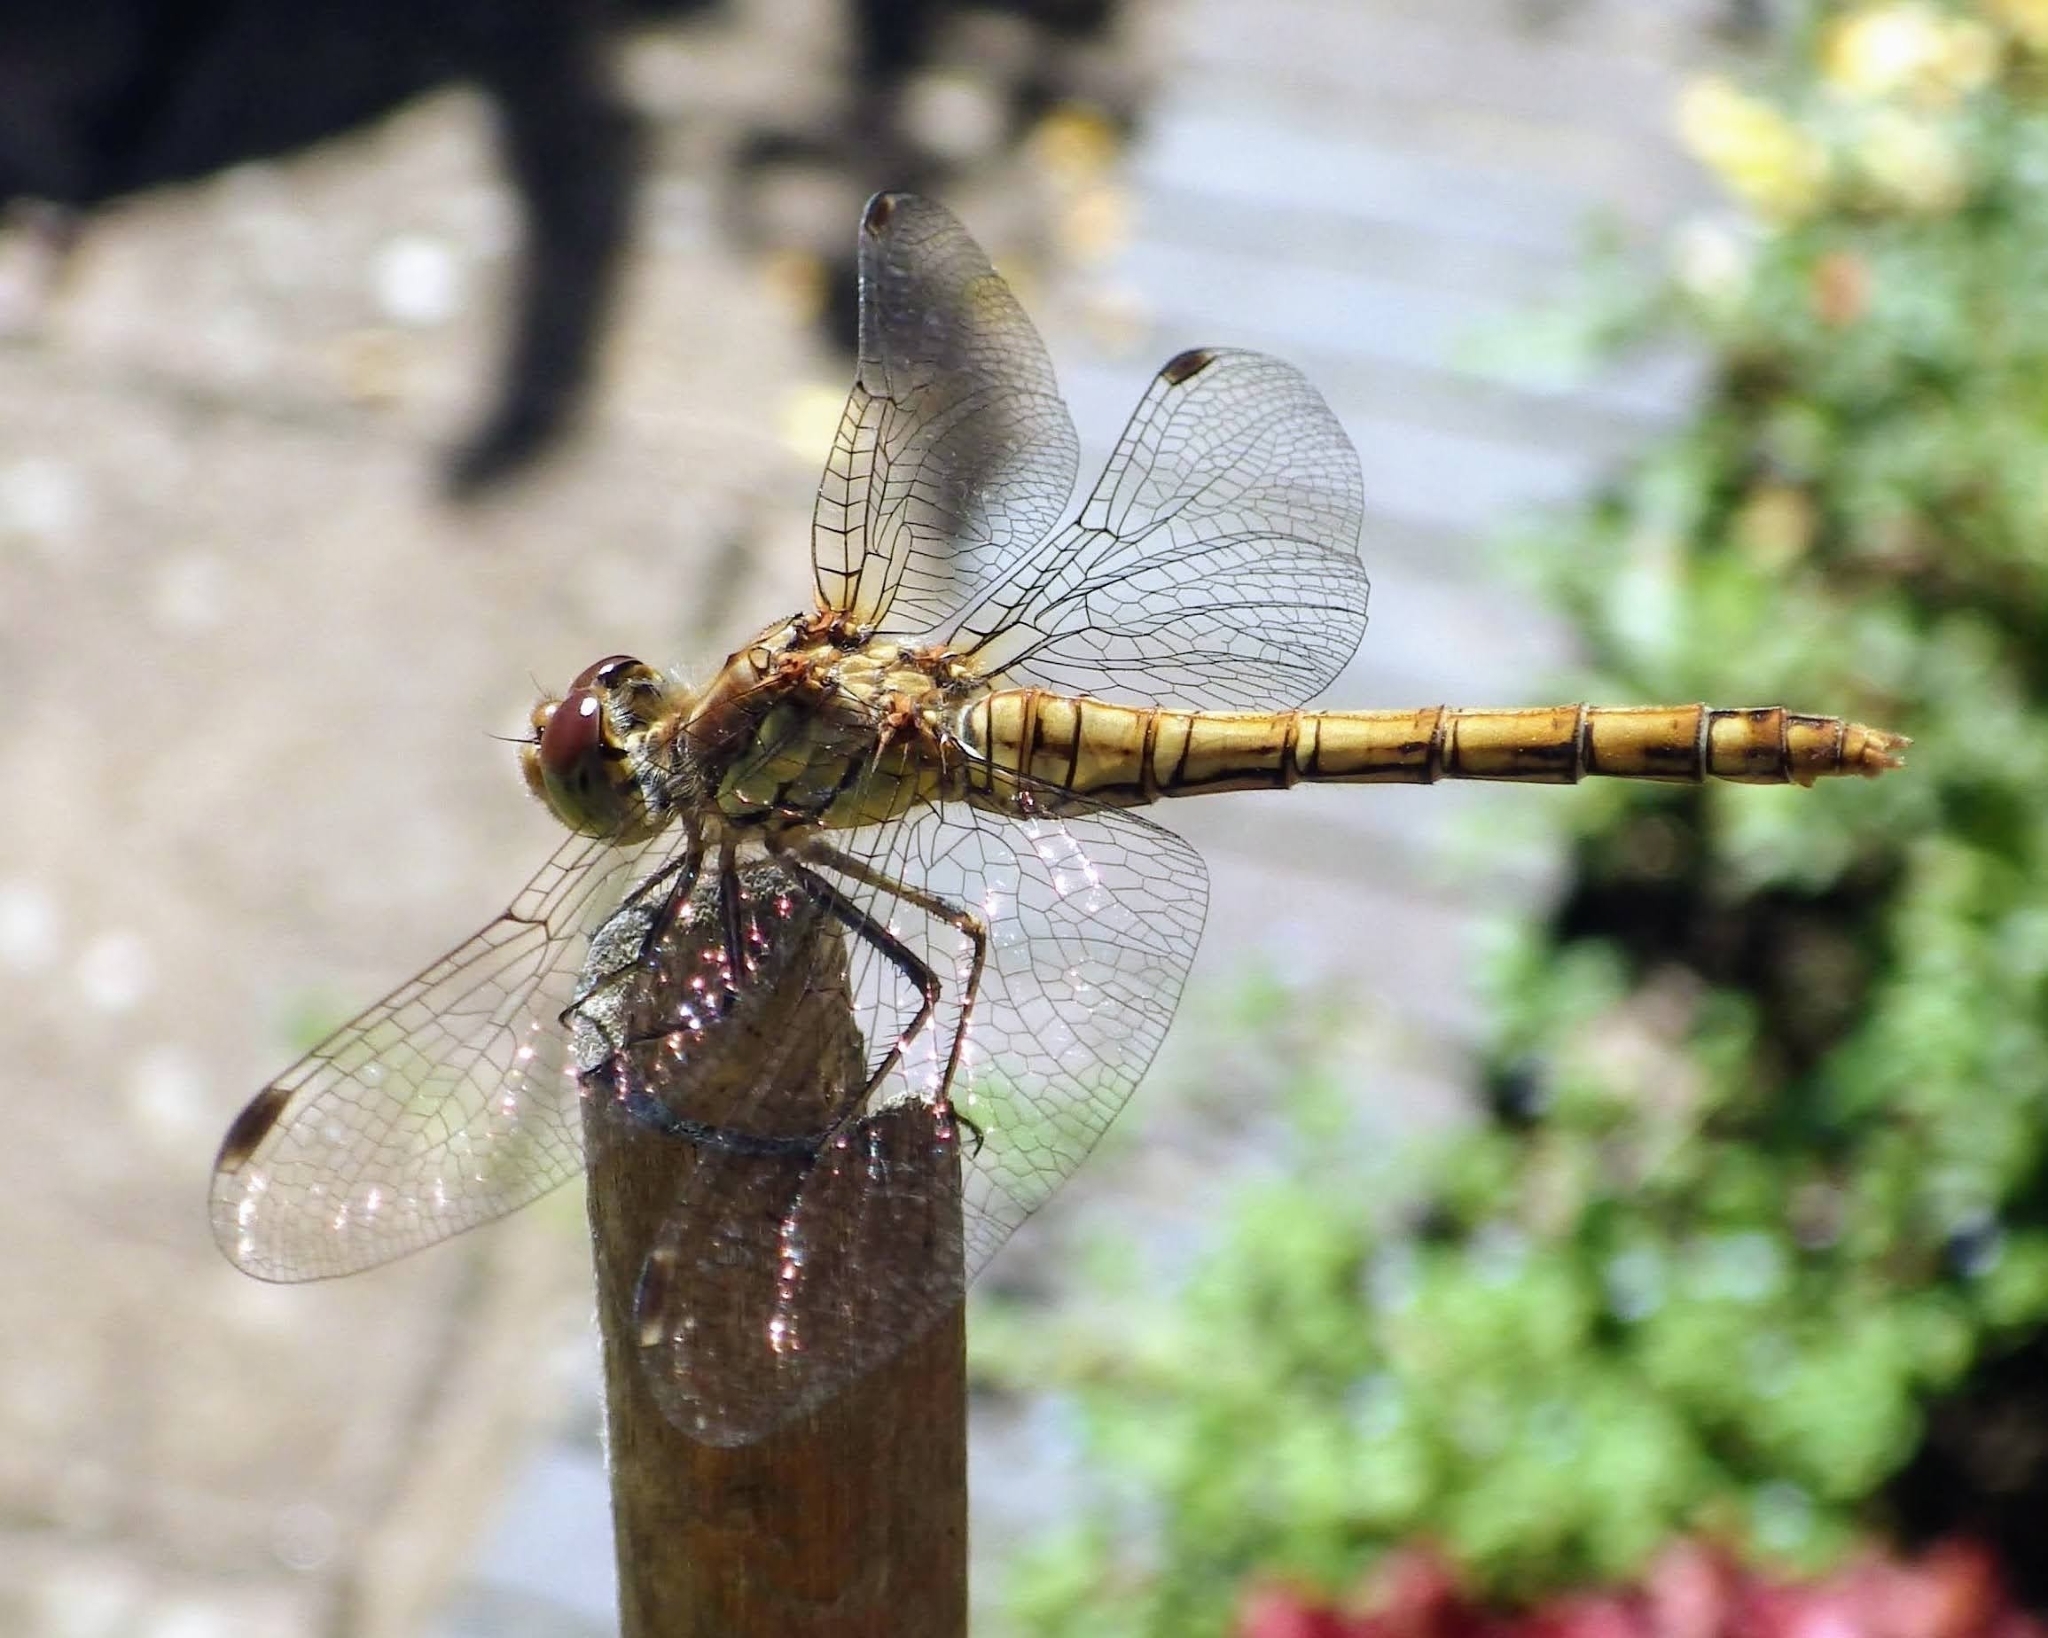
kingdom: Animalia
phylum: Arthropoda
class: Insecta
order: Odonata
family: Libellulidae
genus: Sympetrum
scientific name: Sympetrum striolatum
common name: Common darter
